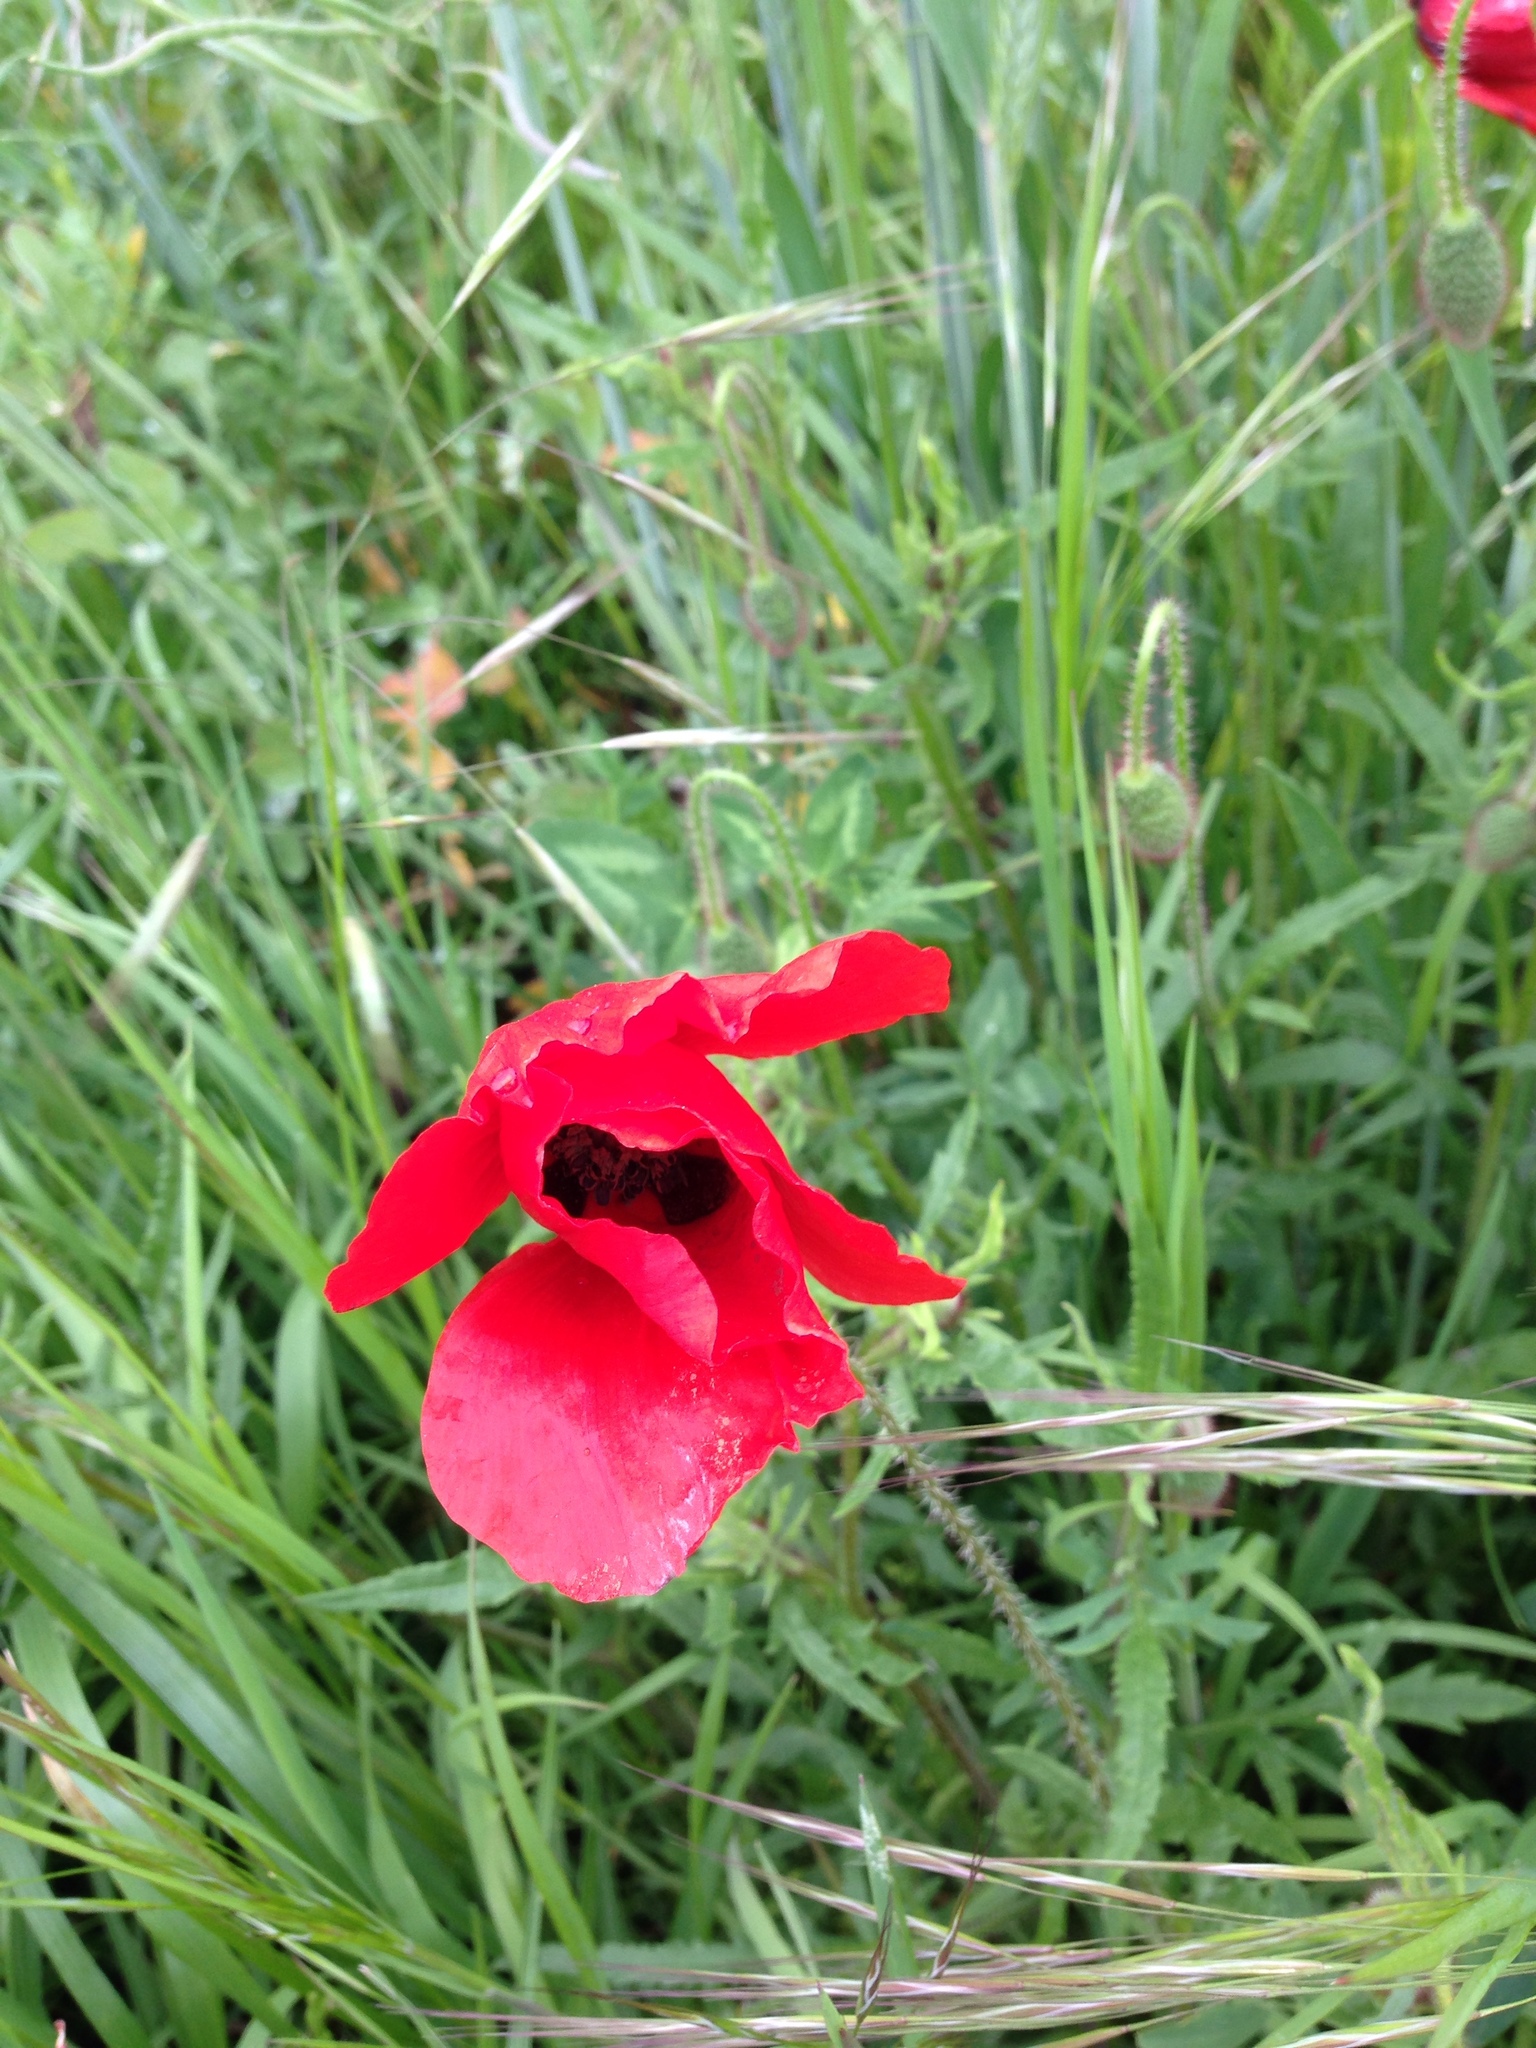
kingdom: Plantae
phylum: Tracheophyta
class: Magnoliopsida
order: Ranunculales
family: Papaveraceae
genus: Papaver
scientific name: Papaver rhoeas
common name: Corn poppy
